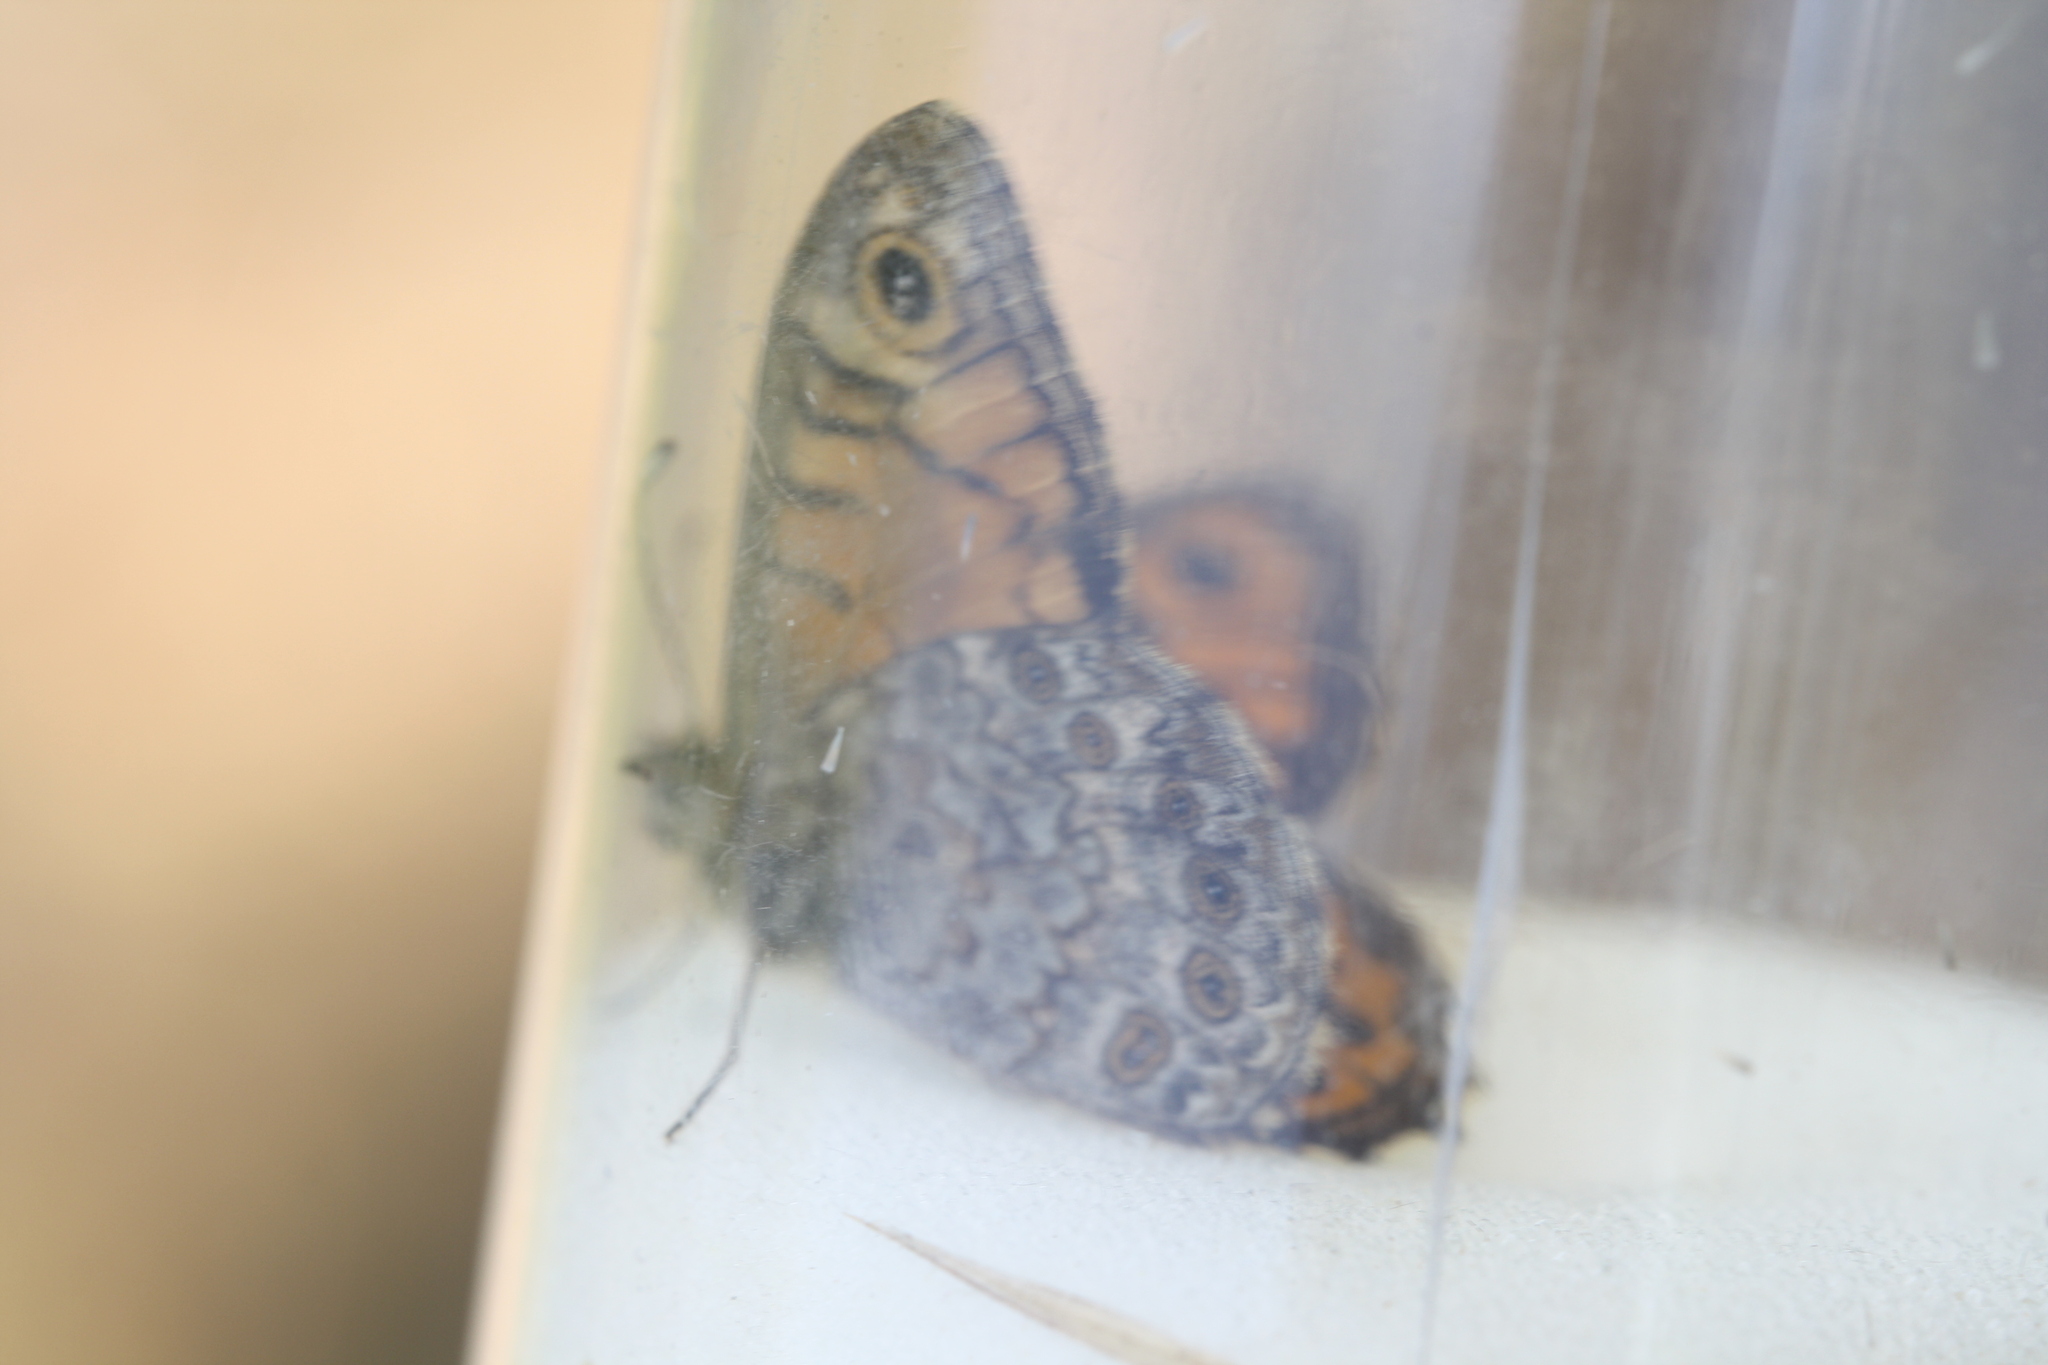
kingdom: Animalia
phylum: Arthropoda
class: Insecta
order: Lepidoptera
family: Nymphalidae
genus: Pararge
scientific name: Pararge Lasiommata megera
